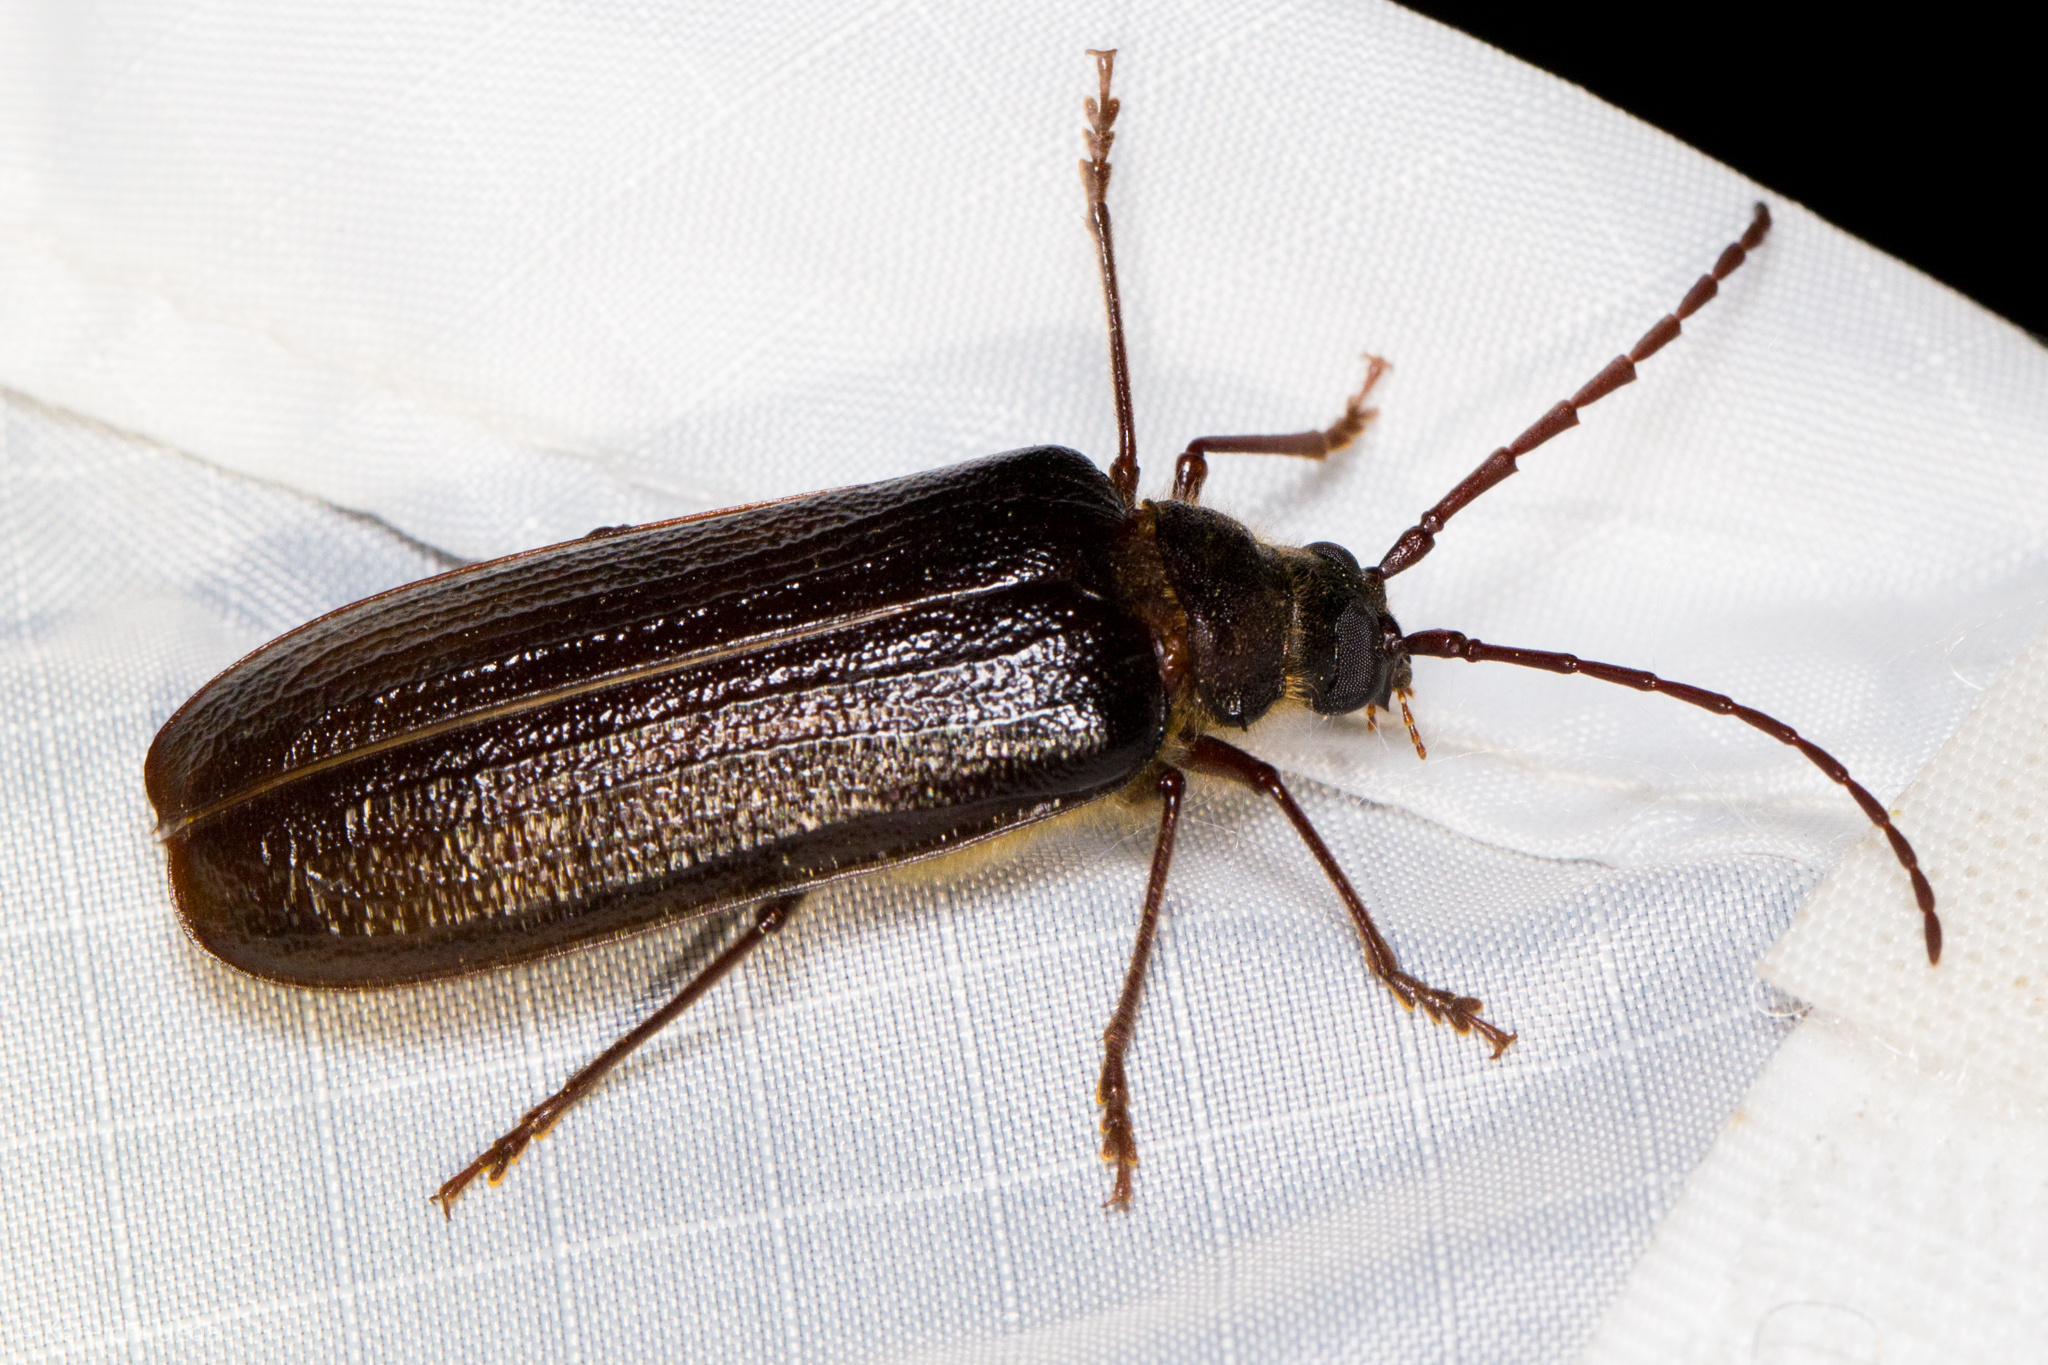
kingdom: Animalia
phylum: Arthropoda
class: Insecta
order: Coleoptera
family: Cerambycidae
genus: Tragosoma
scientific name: Tragosoma pilosicornis
